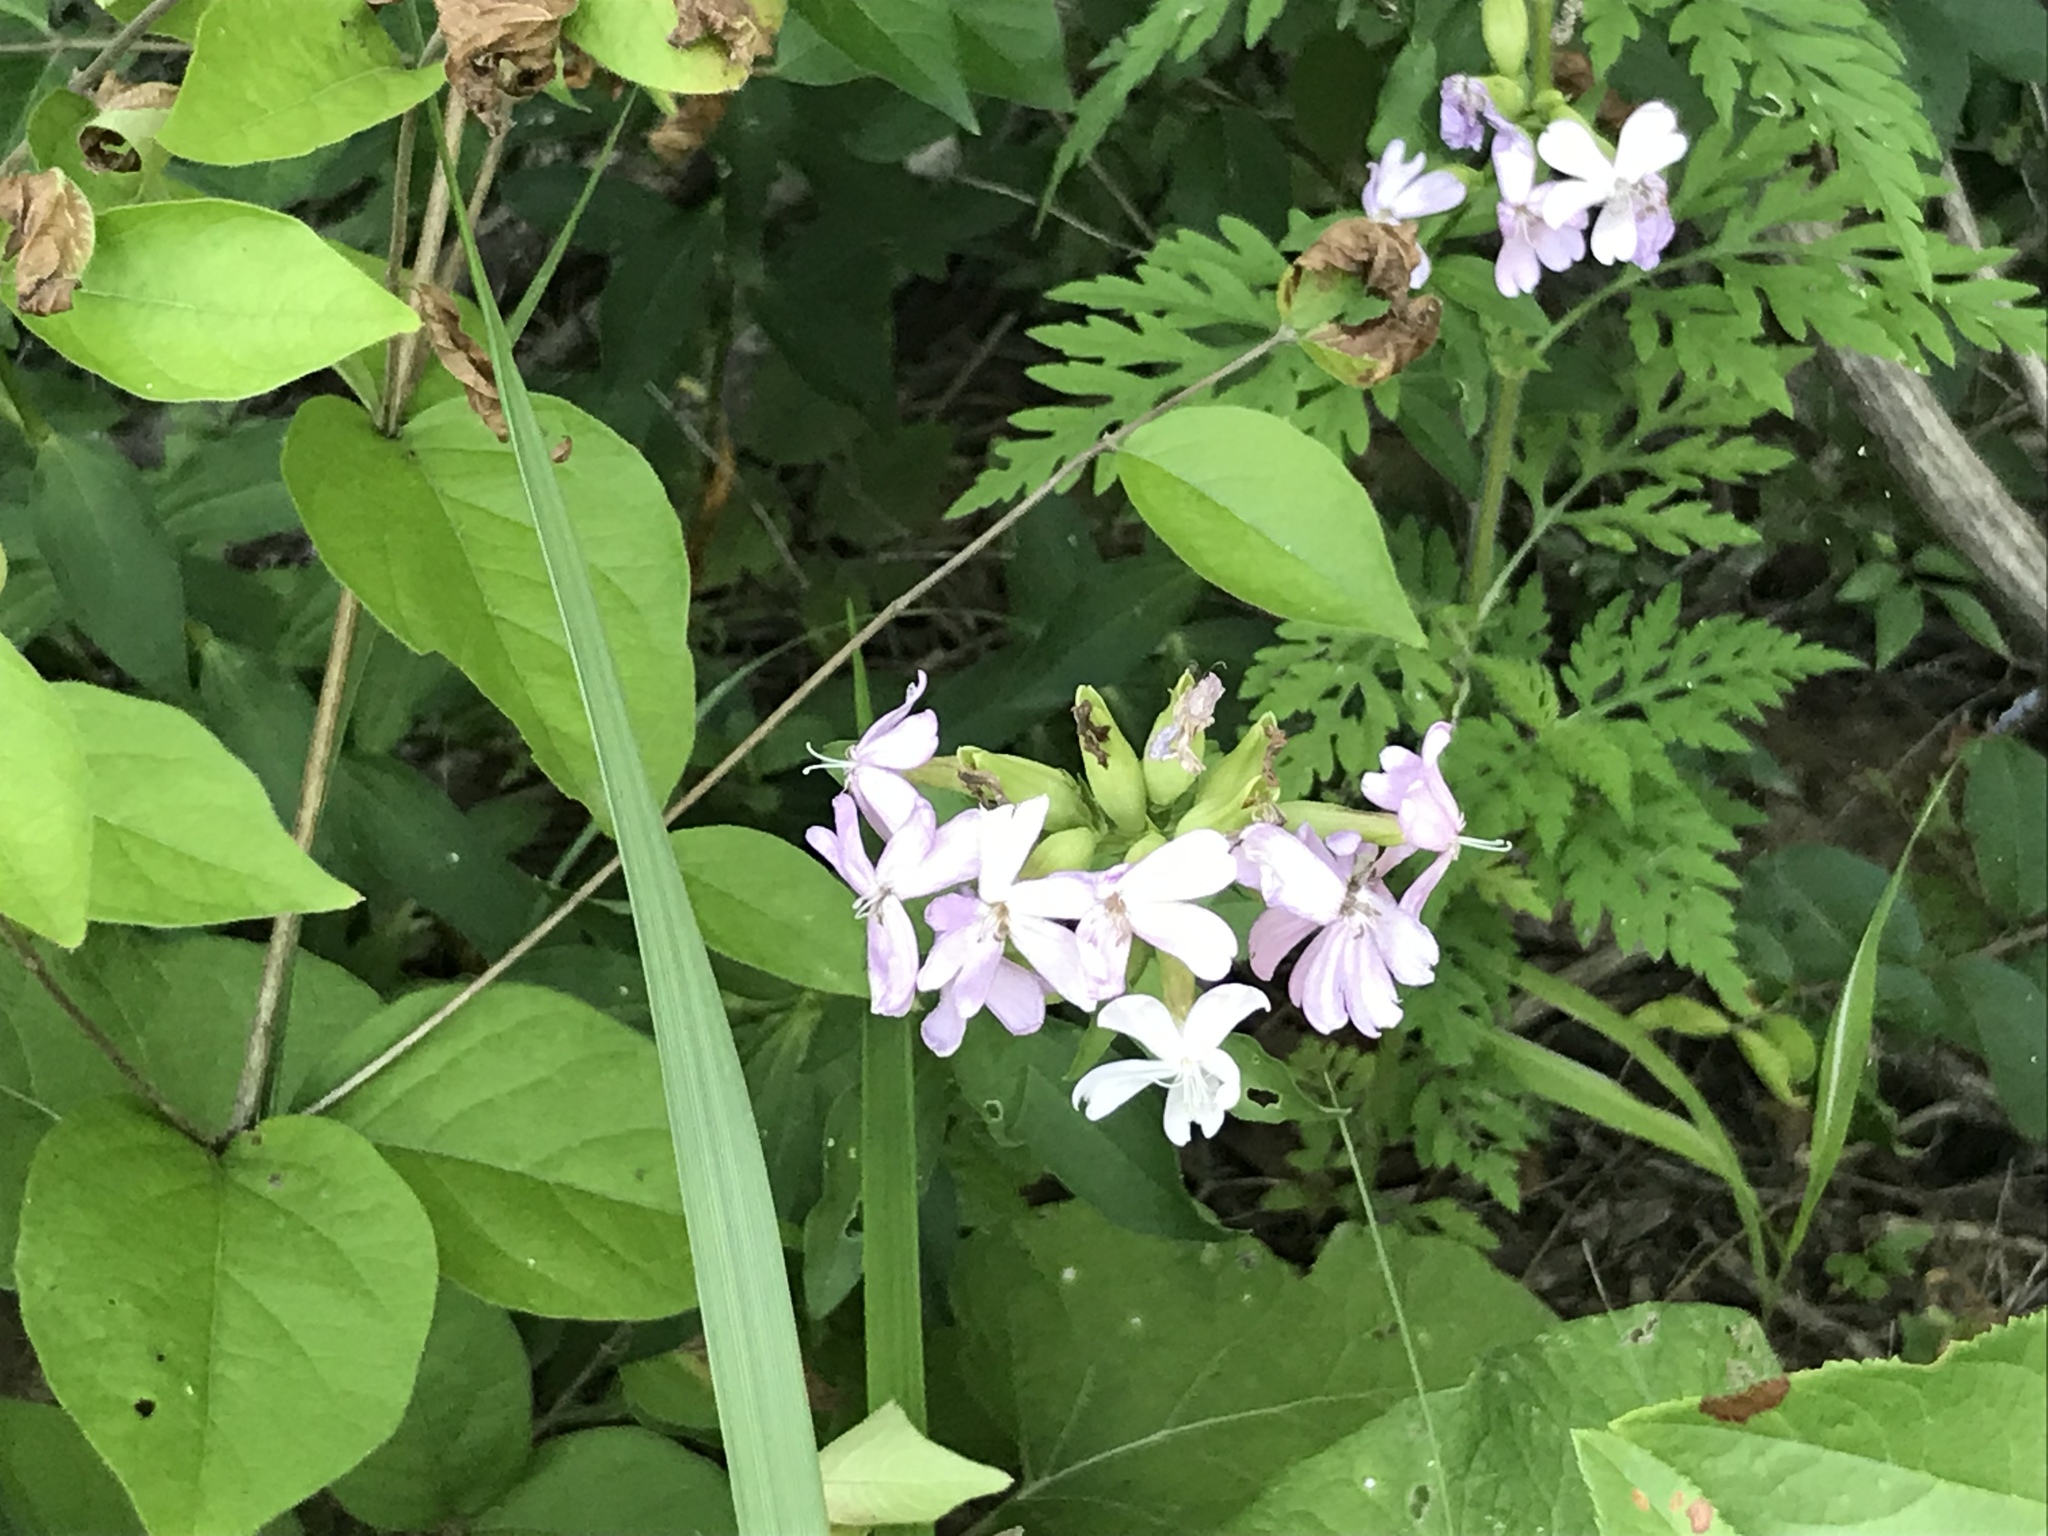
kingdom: Plantae
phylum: Tracheophyta
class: Magnoliopsida
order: Caryophyllales
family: Caryophyllaceae
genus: Saponaria
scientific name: Saponaria officinalis
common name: Soapwort
